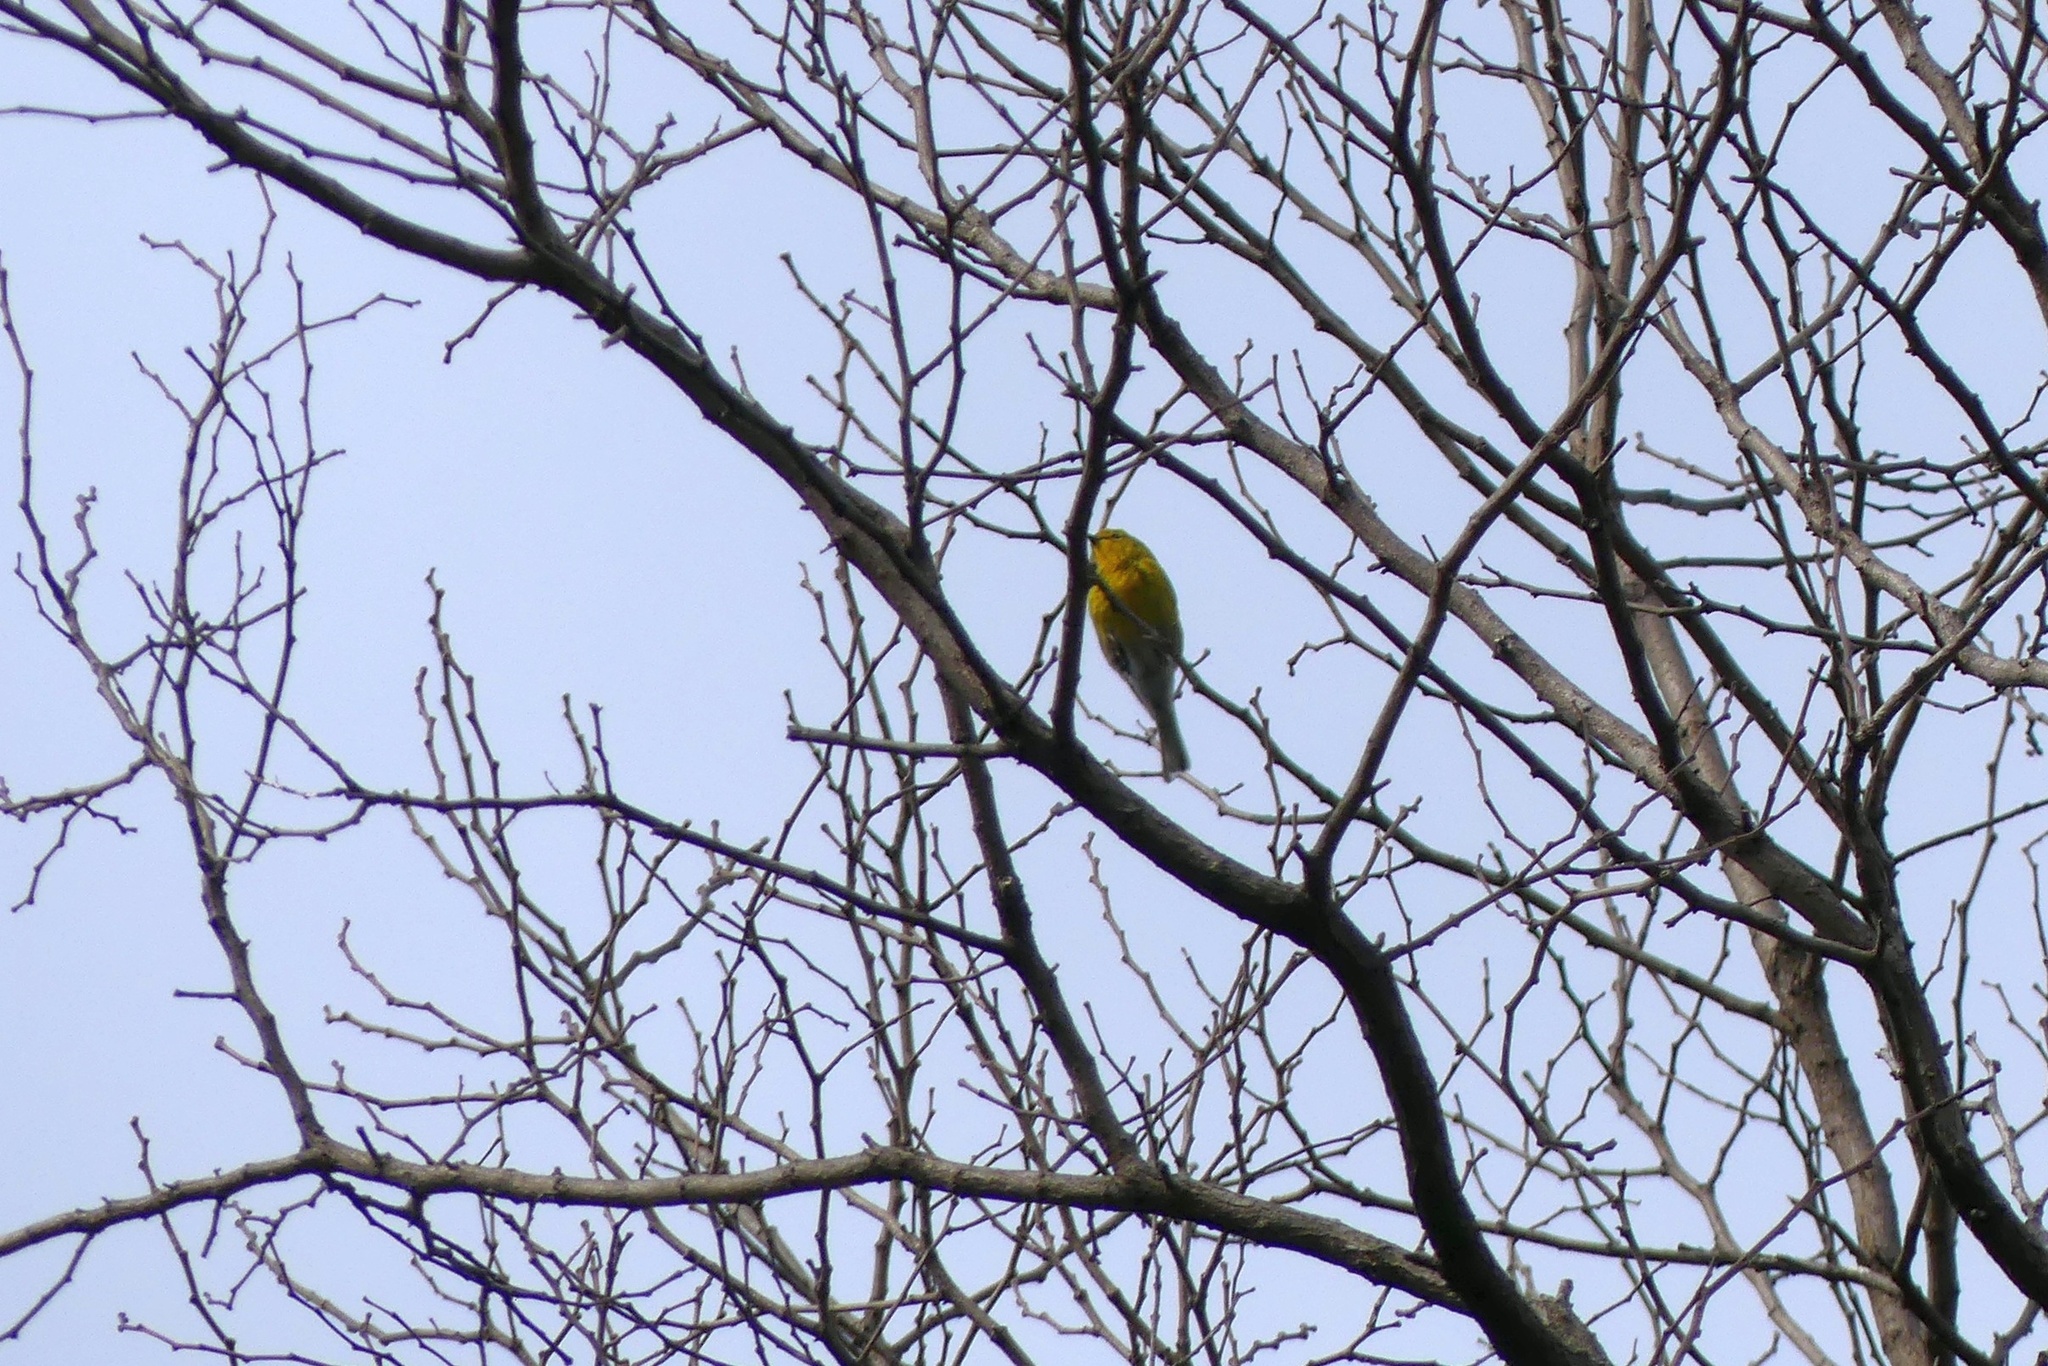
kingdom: Animalia
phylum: Chordata
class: Aves
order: Passeriformes
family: Parulidae
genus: Setophaga
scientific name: Setophaga pinus
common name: Pine warbler
